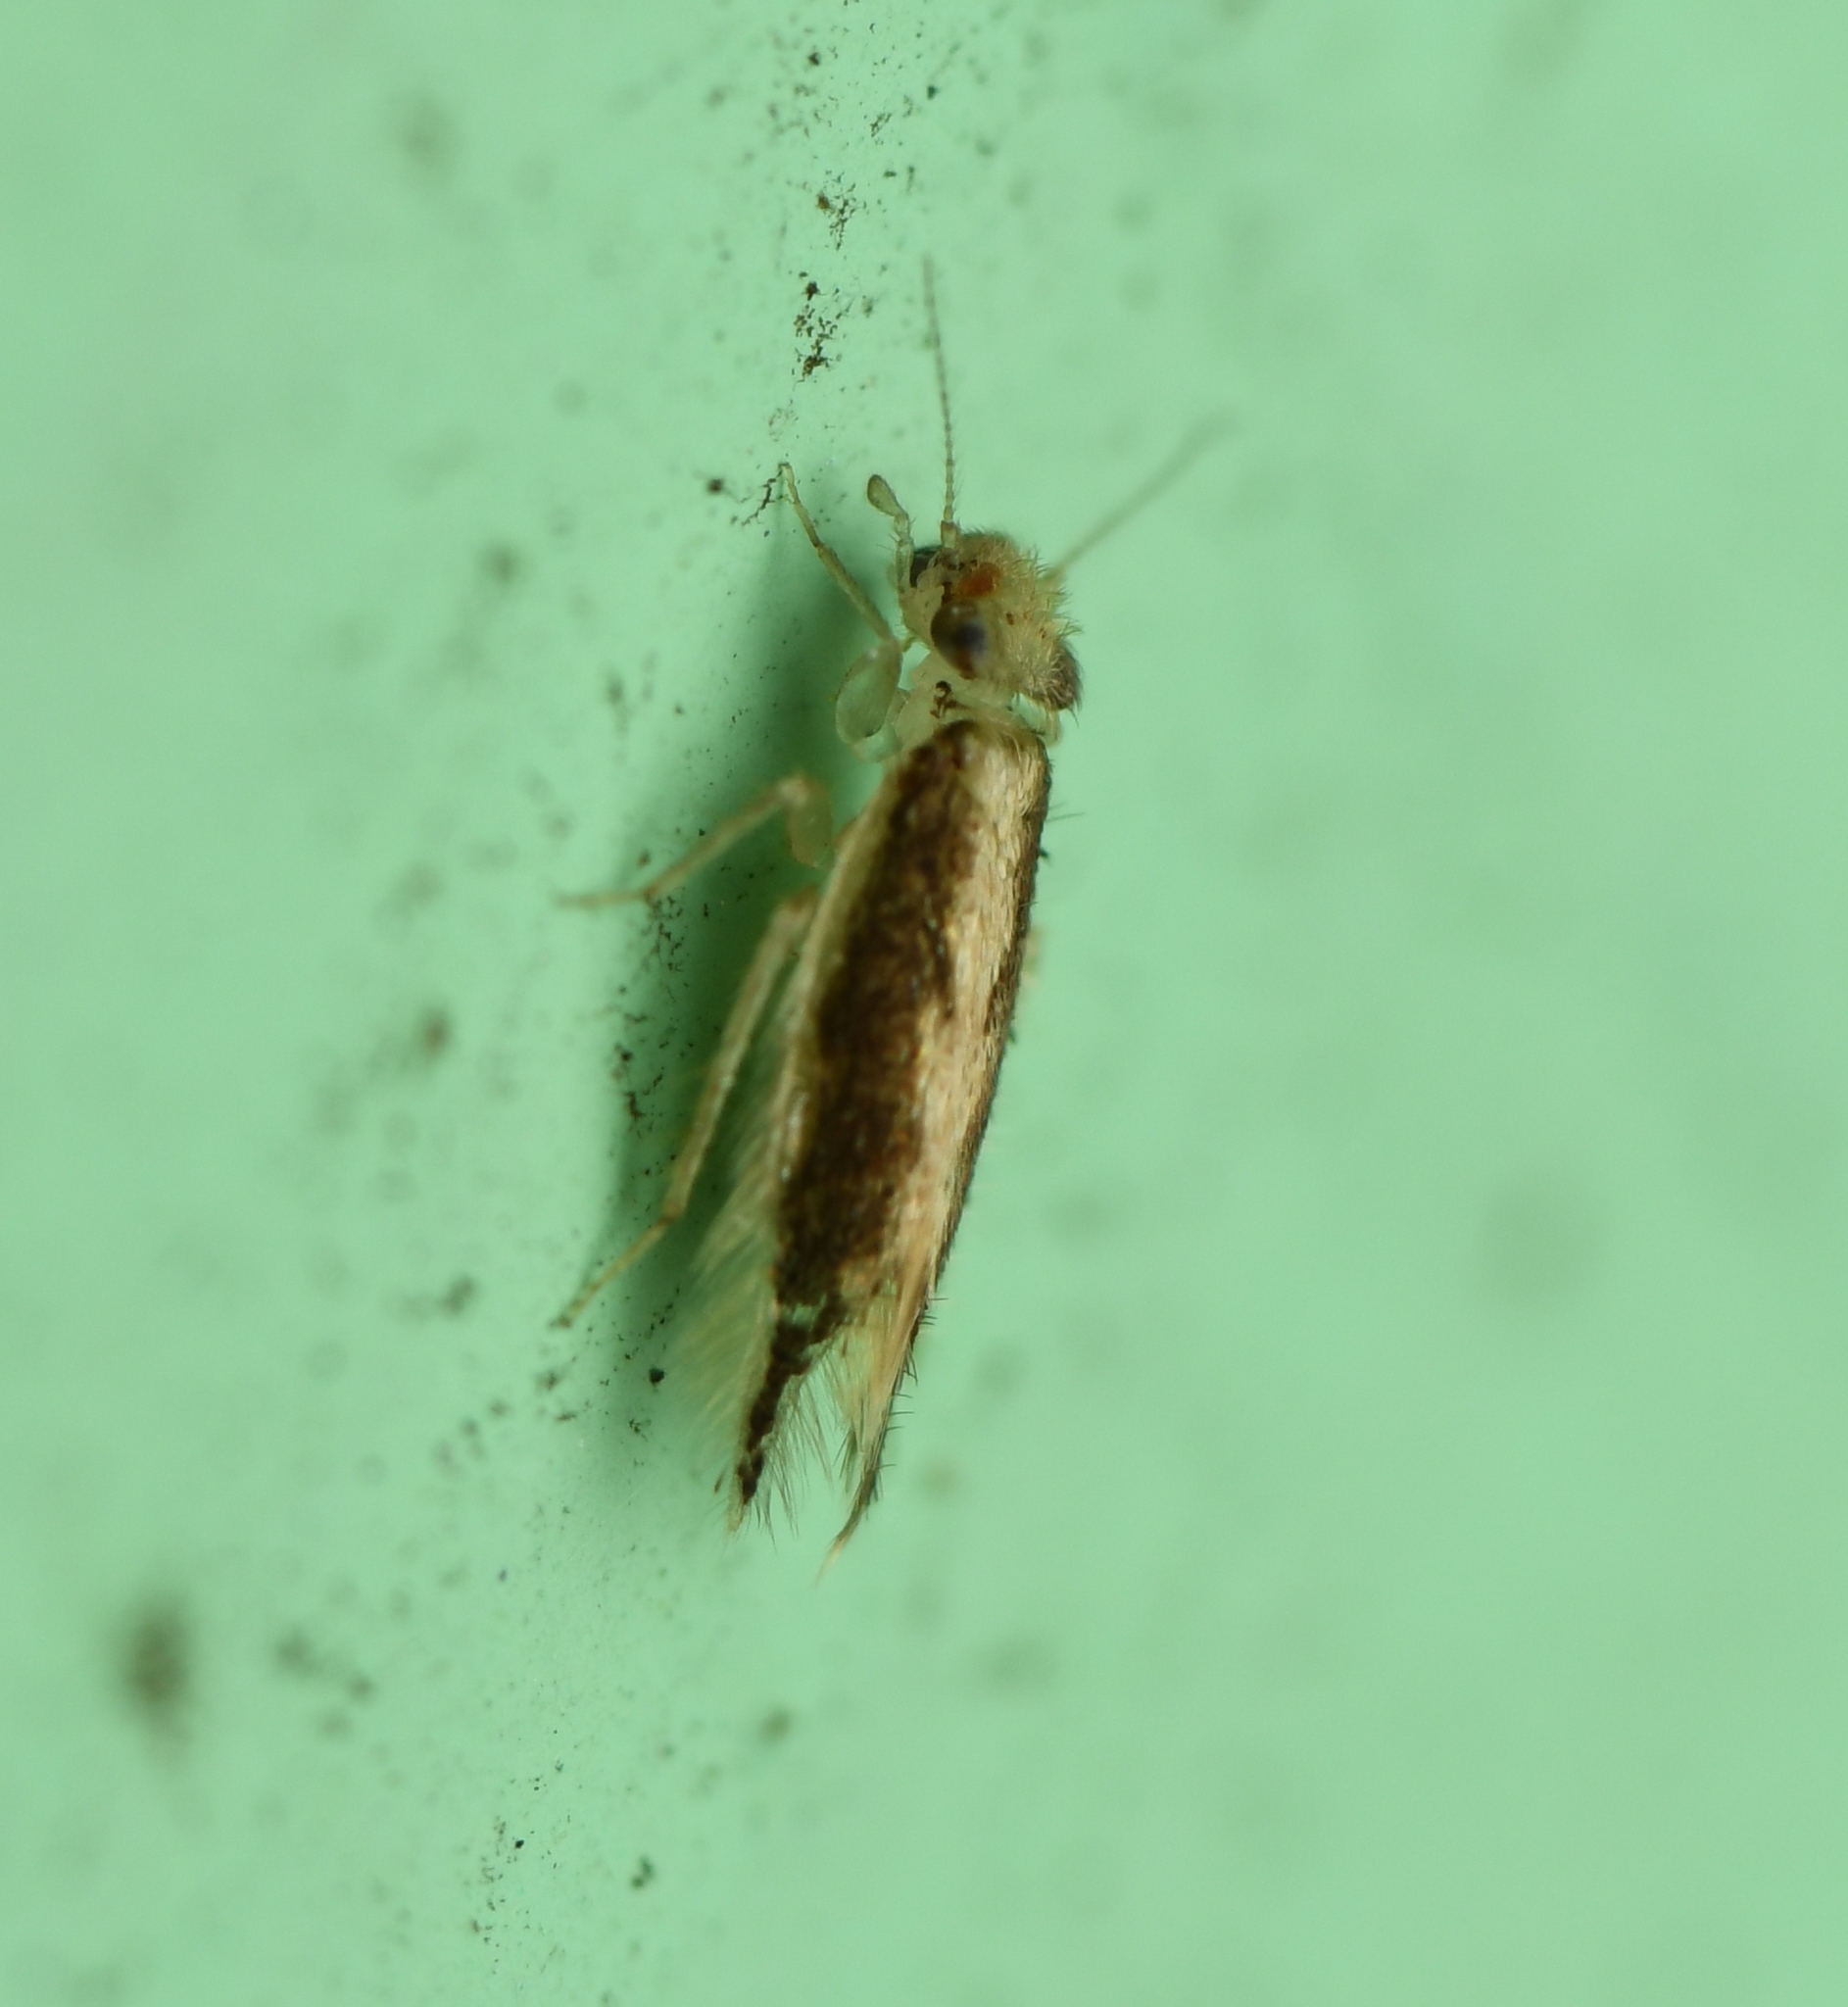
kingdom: Animalia
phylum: Arthropoda
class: Insecta
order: Psocodea
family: Lepidopsocidae
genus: Echmepteryx
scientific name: Echmepteryx madagascariensis
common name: Bark lice
